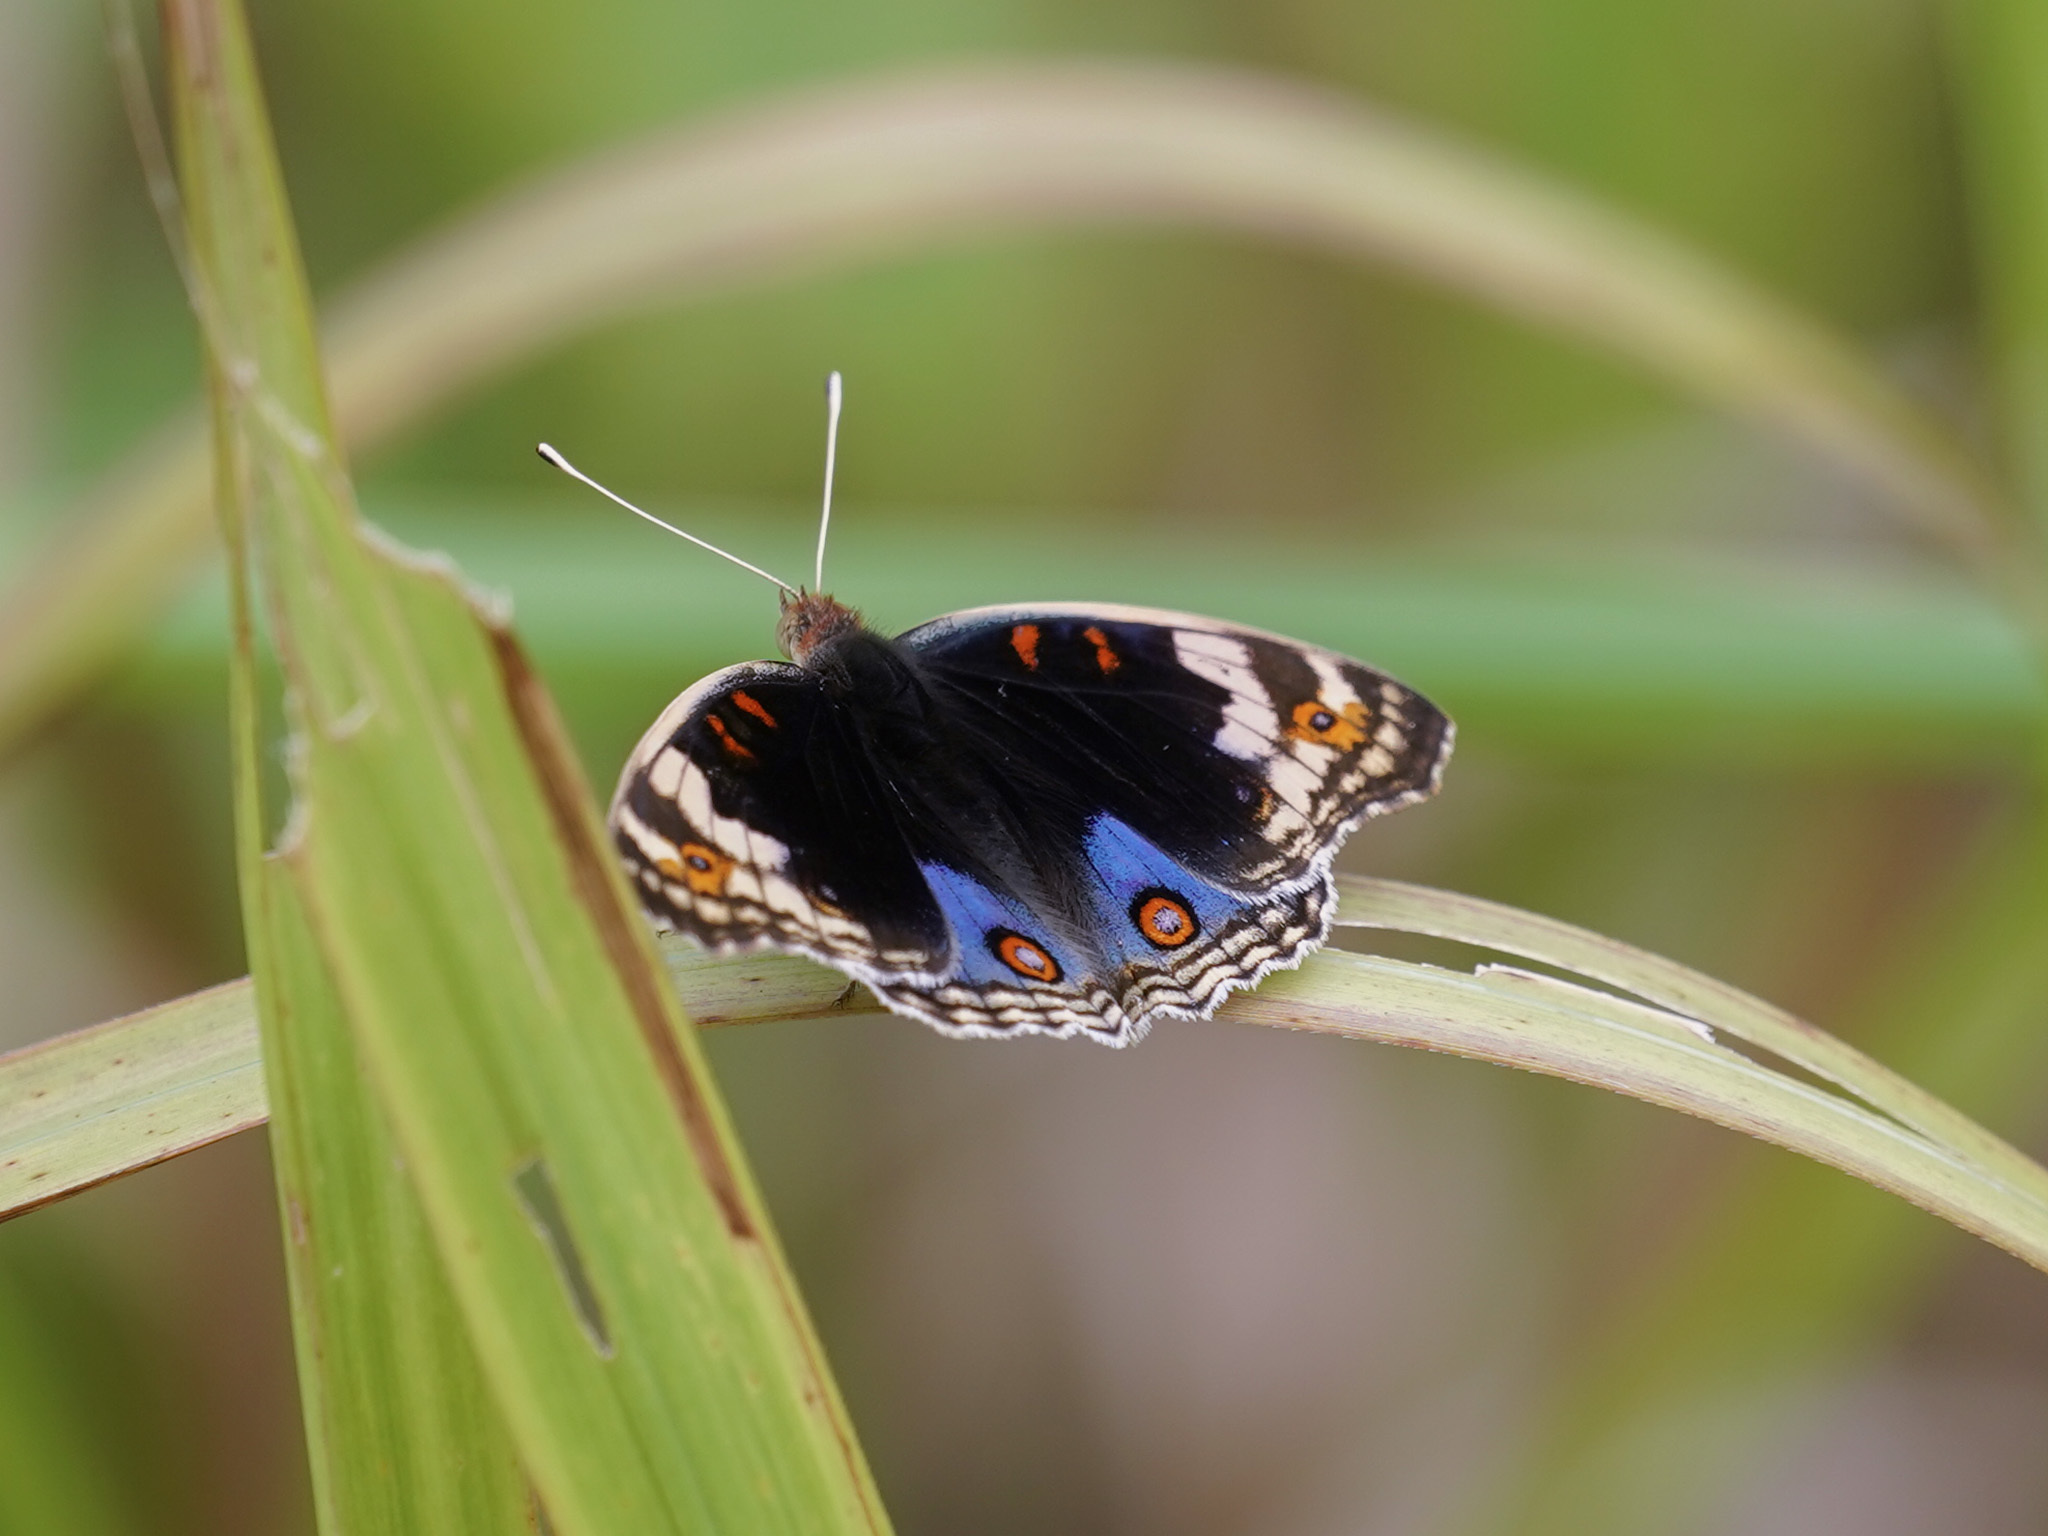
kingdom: Animalia
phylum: Arthropoda
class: Insecta
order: Lepidoptera
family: Nymphalidae
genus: Junonia
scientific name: Junonia orithya
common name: Blue pansy
